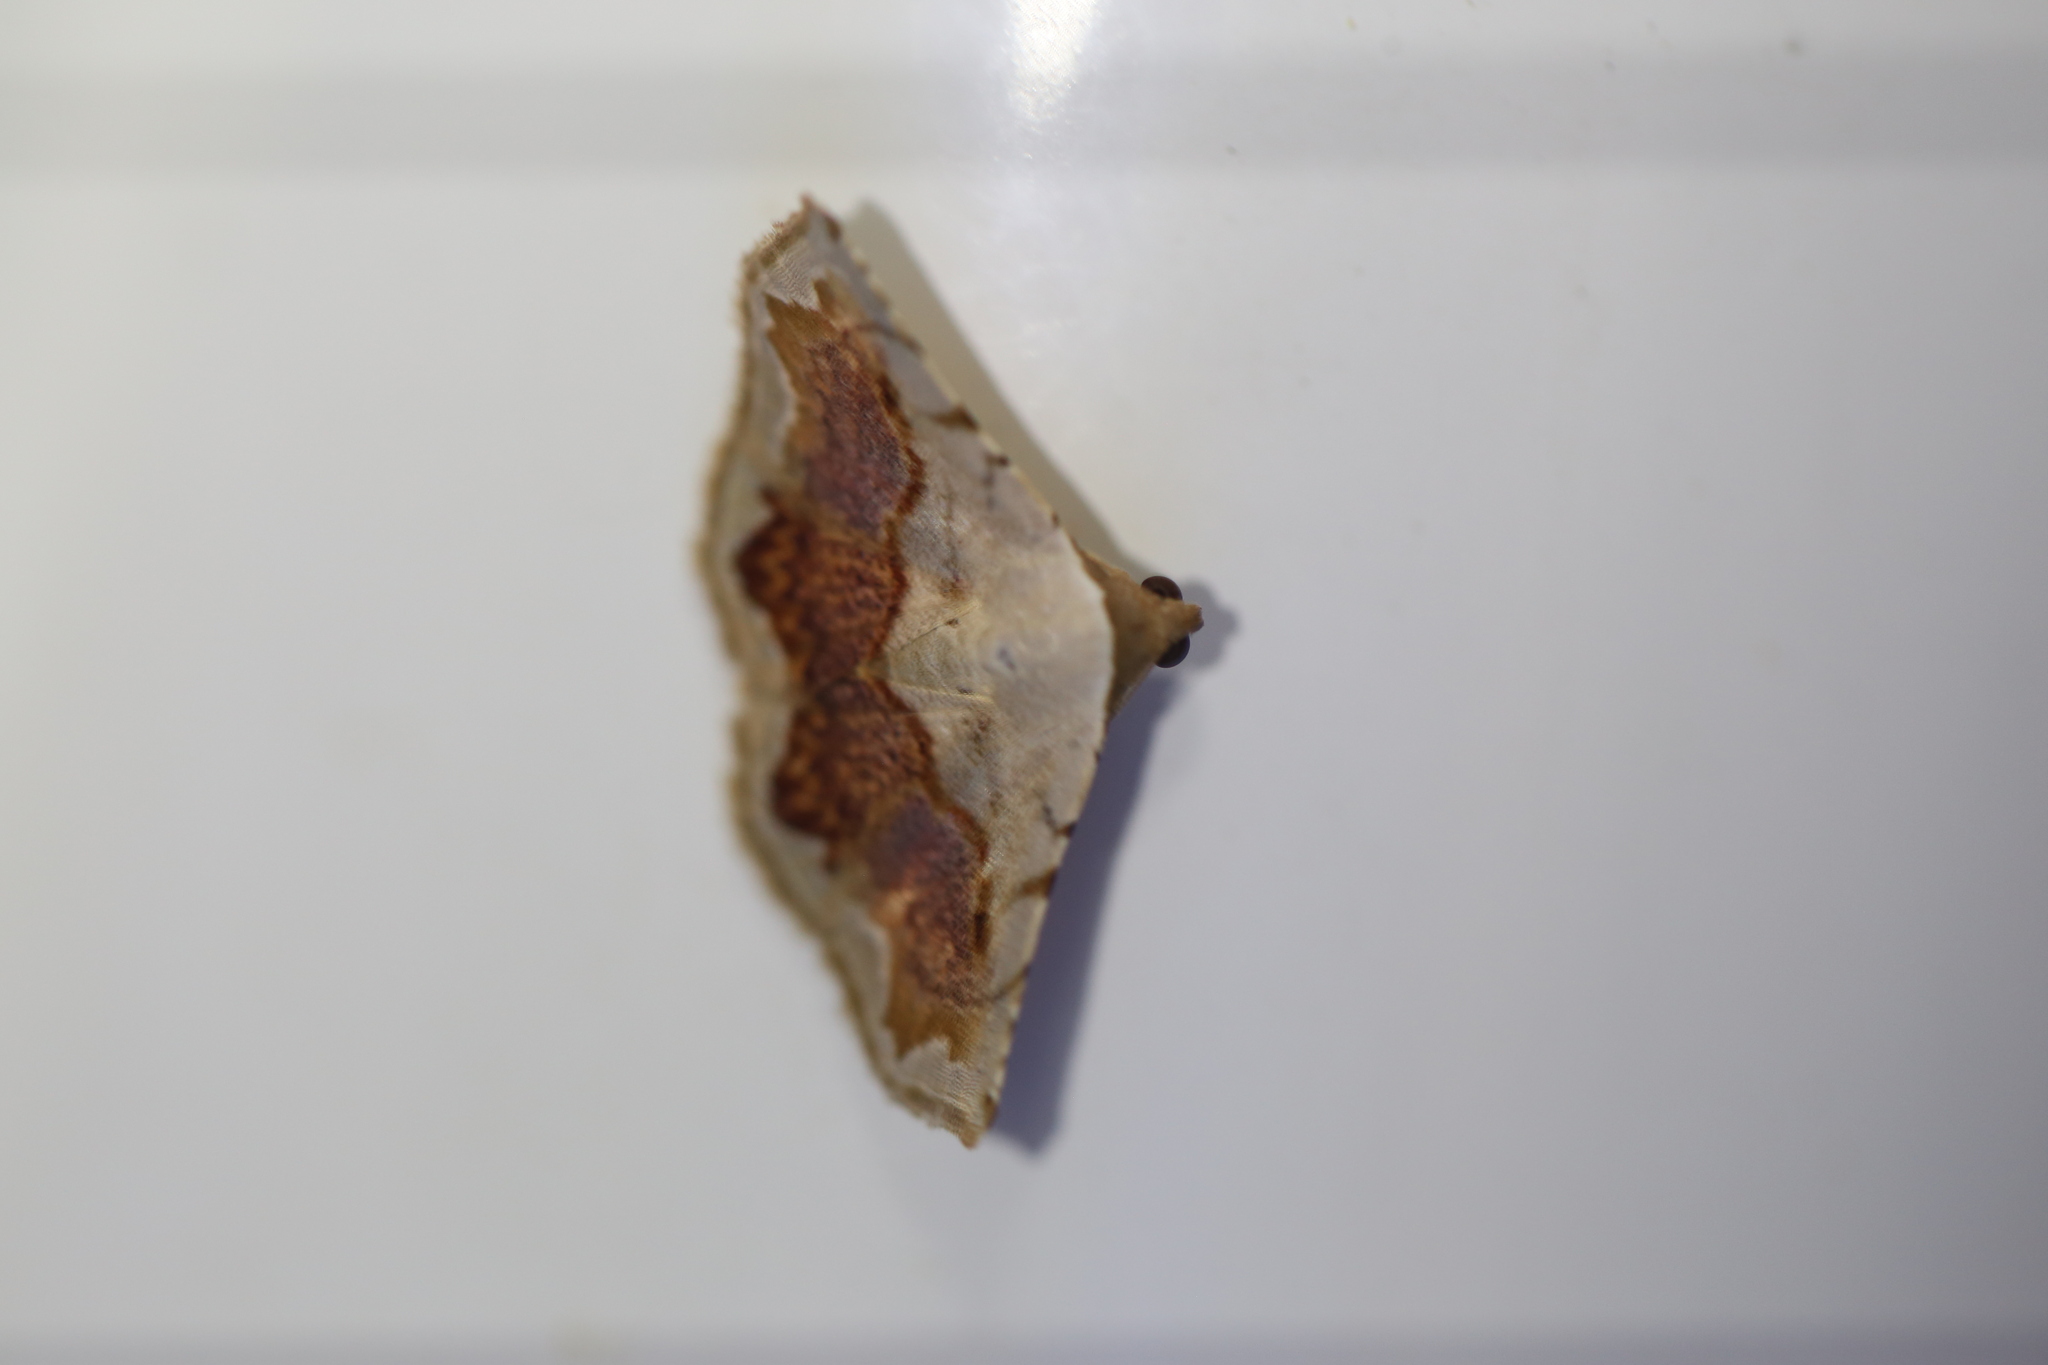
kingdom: Animalia
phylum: Arthropoda
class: Insecta
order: Lepidoptera
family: Noctuidae
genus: Eublemma
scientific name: Eublemma
